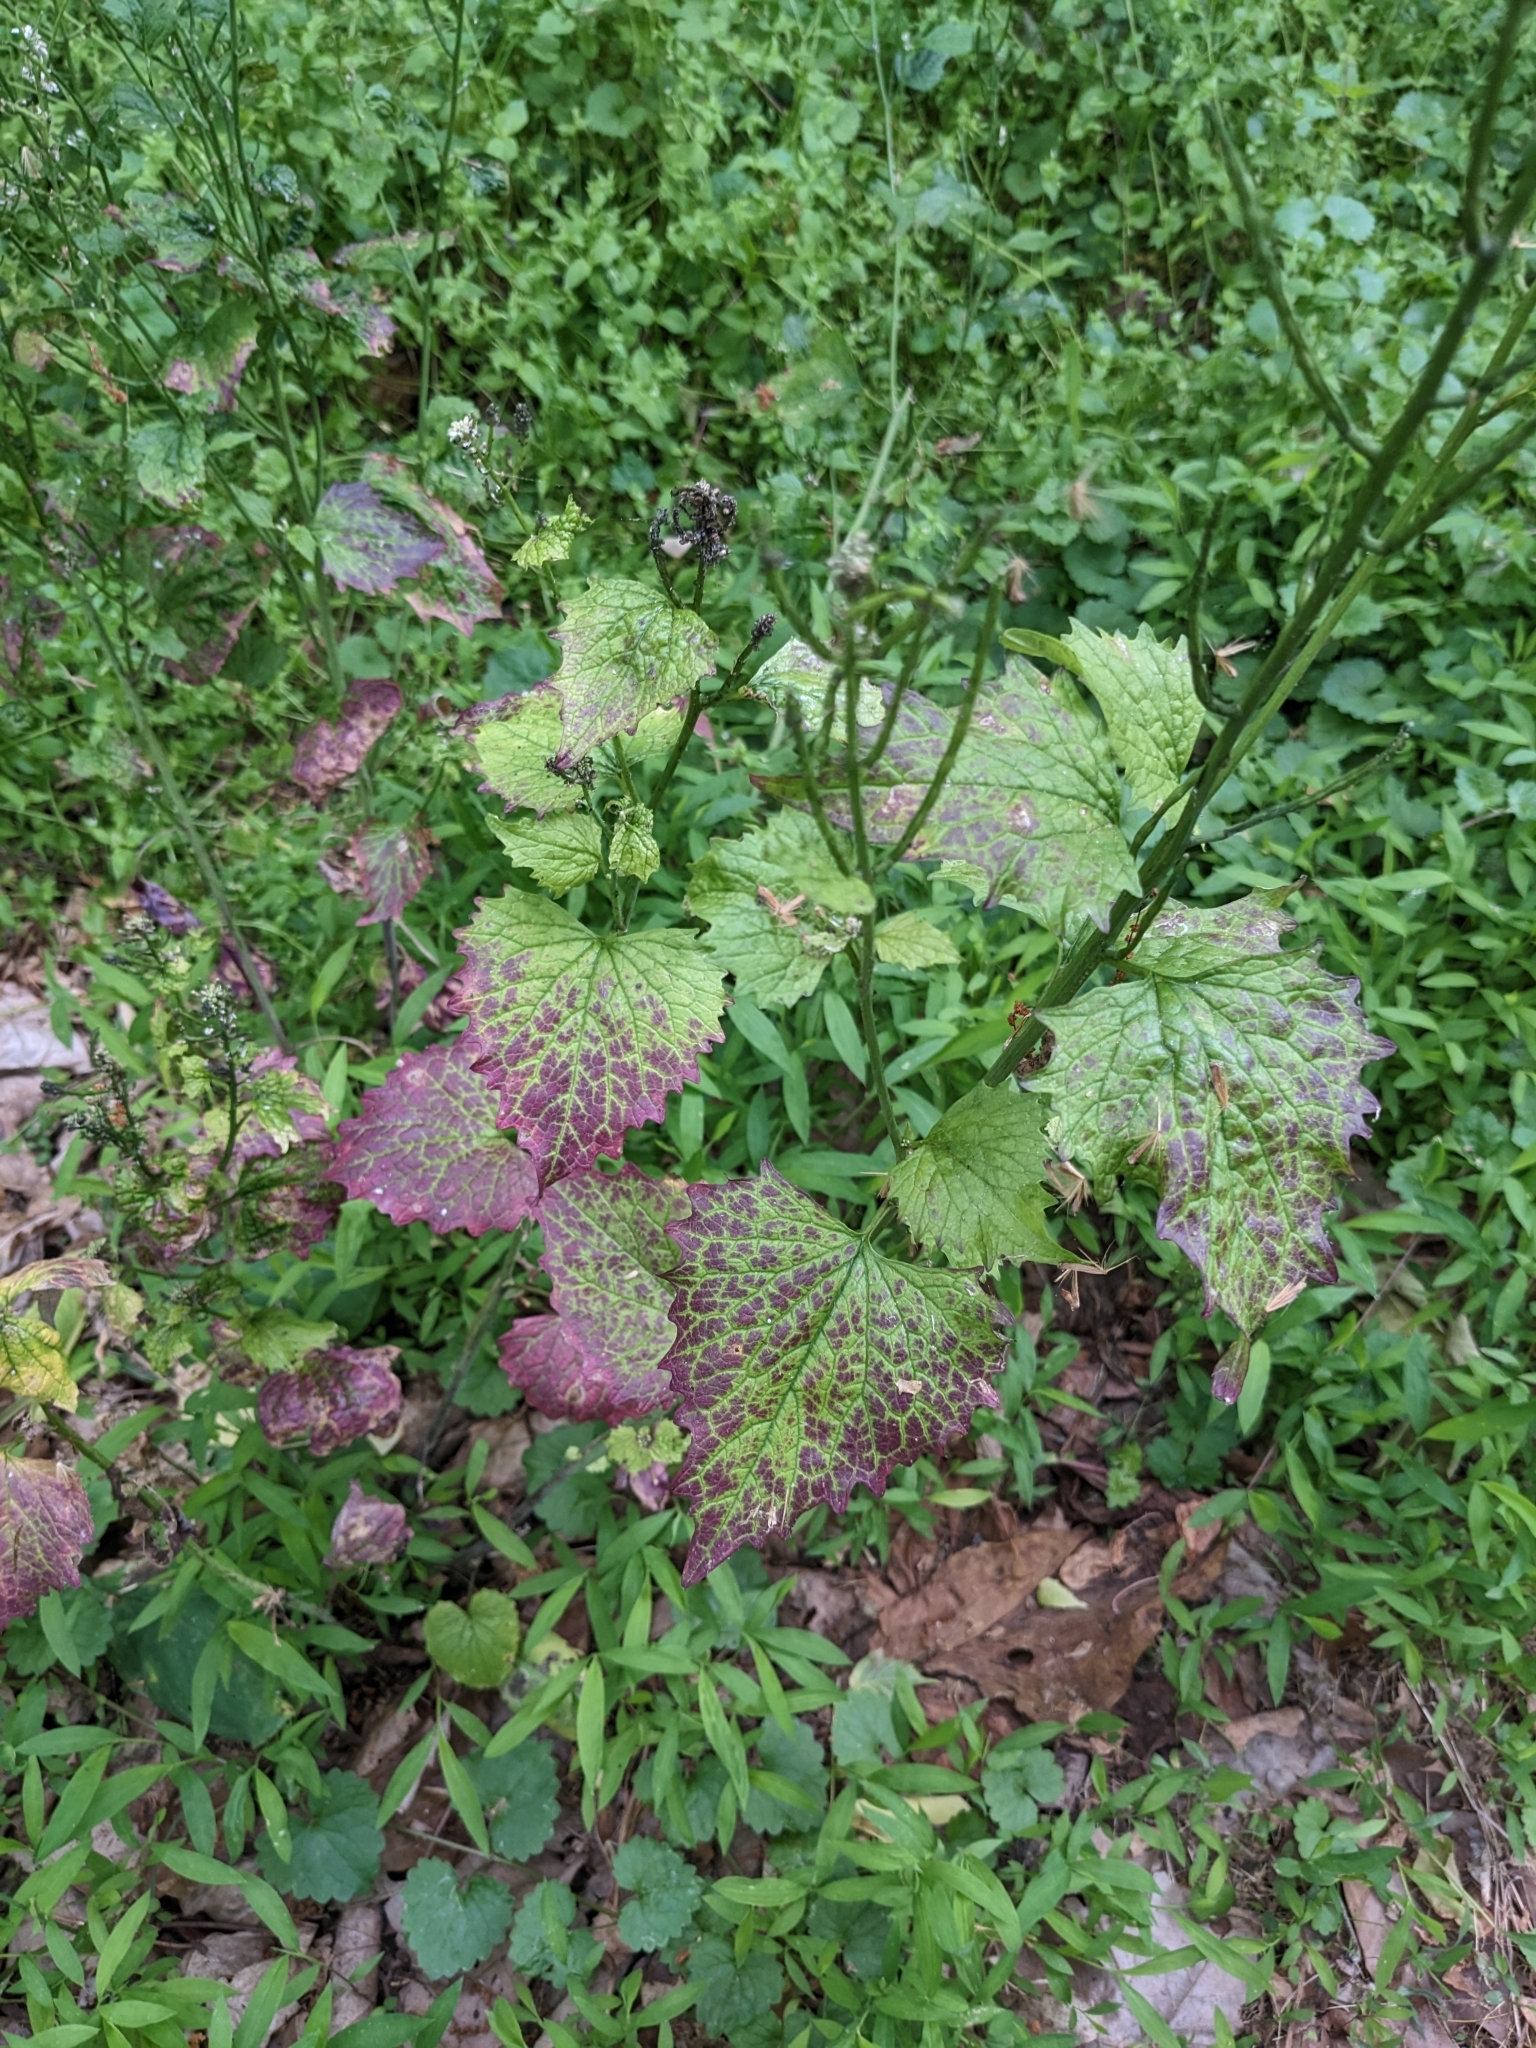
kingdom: Plantae
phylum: Tracheophyta
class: Magnoliopsida
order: Brassicales
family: Brassicaceae
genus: Alliaria
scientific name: Alliaria petiolata
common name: Garlic mustard
